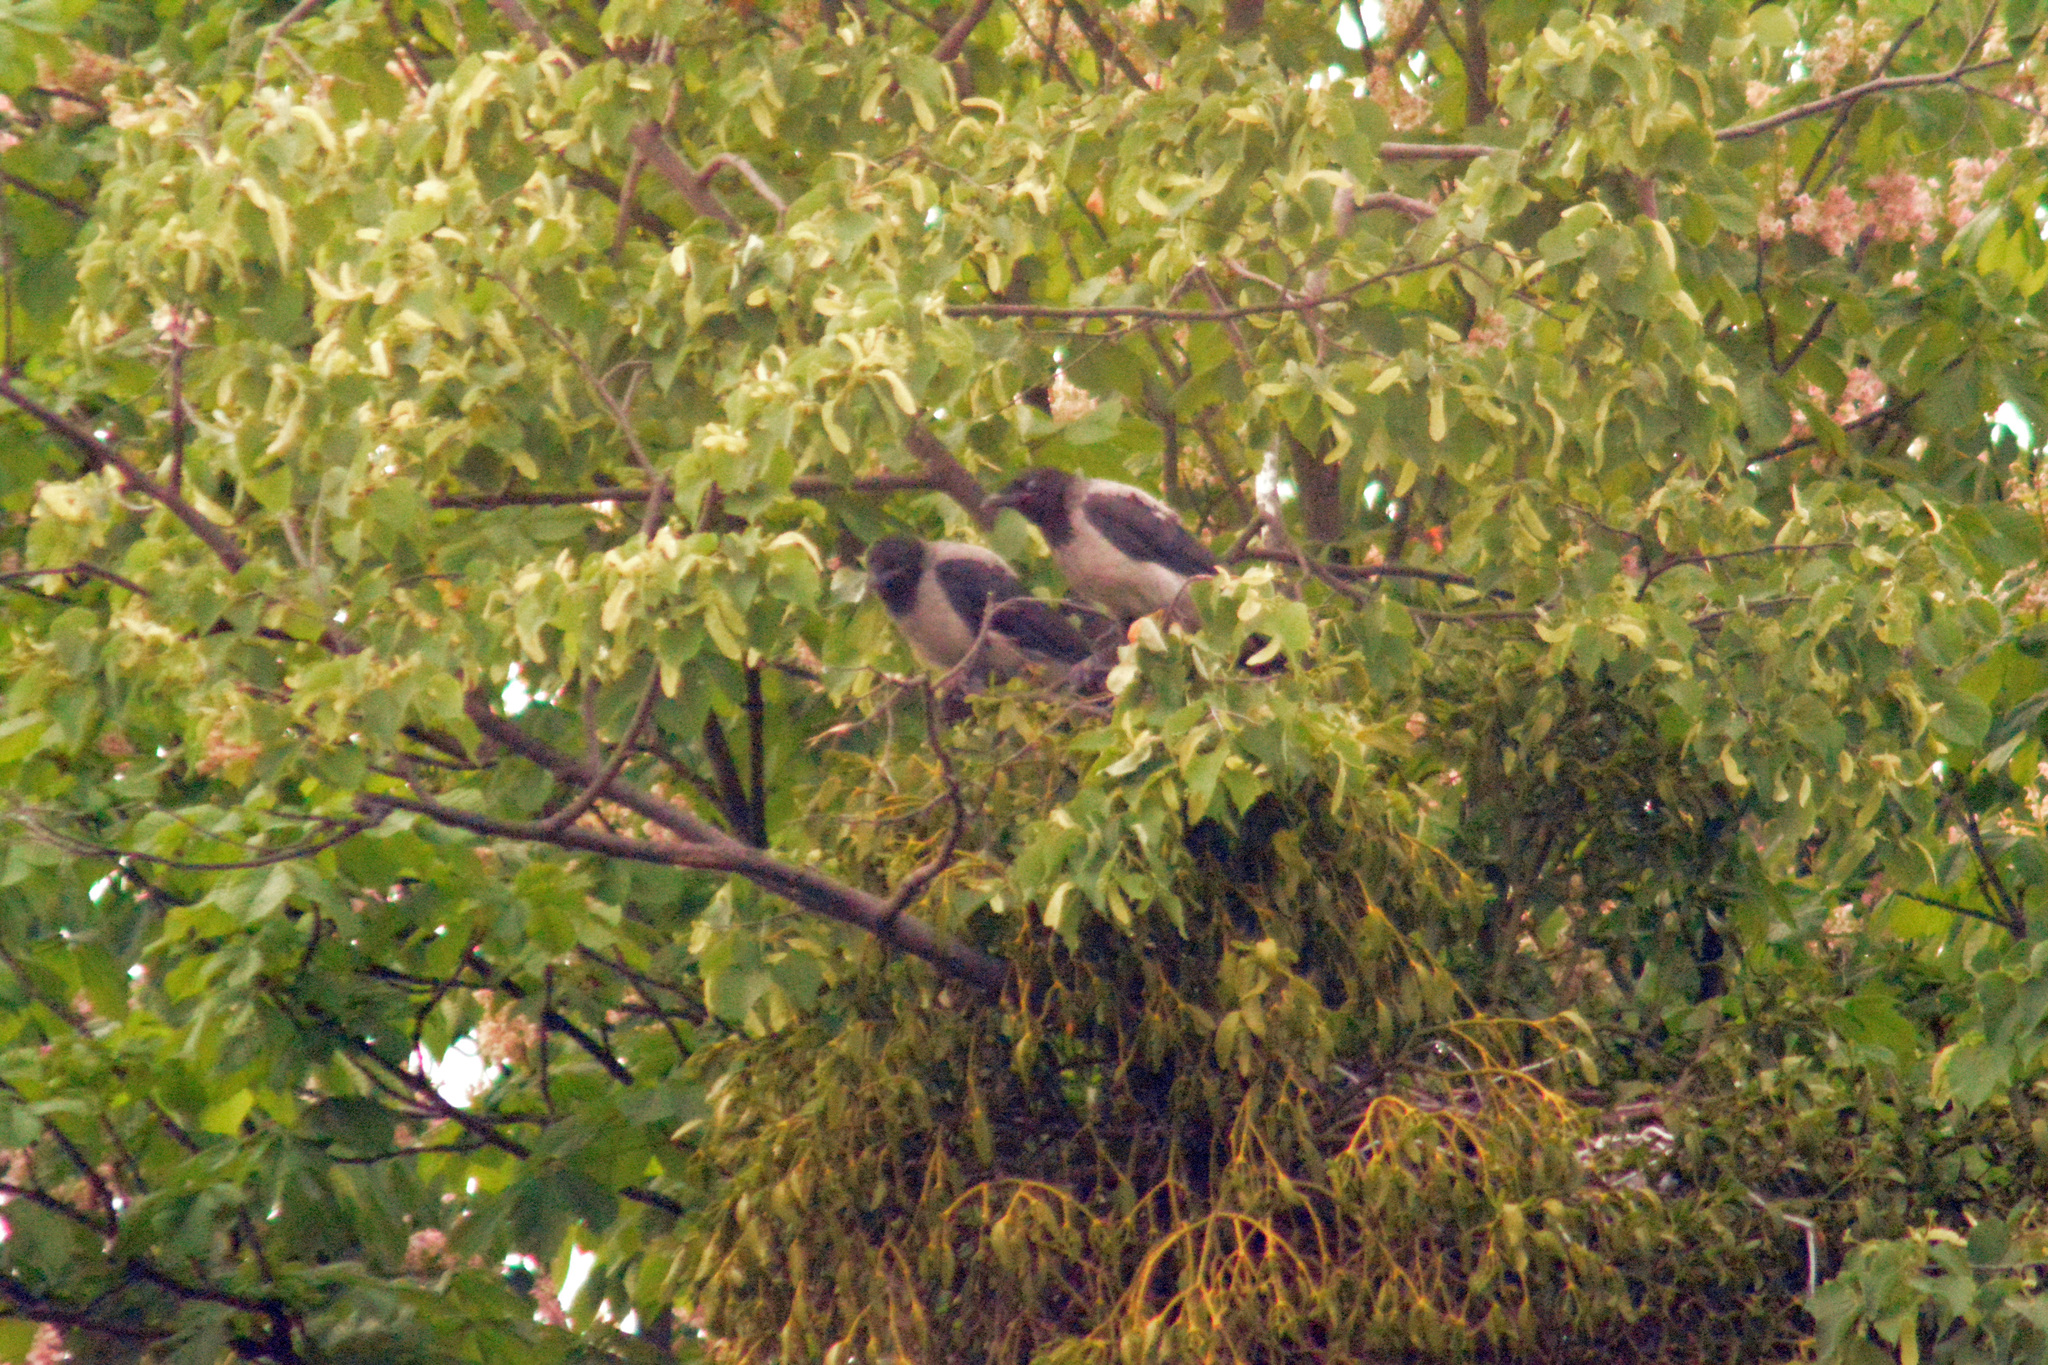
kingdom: Animalia
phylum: Chordata
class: Aves
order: Passeriformes
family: Corvidae
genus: Corvus
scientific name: Corvus cornix
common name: Hooded crow
